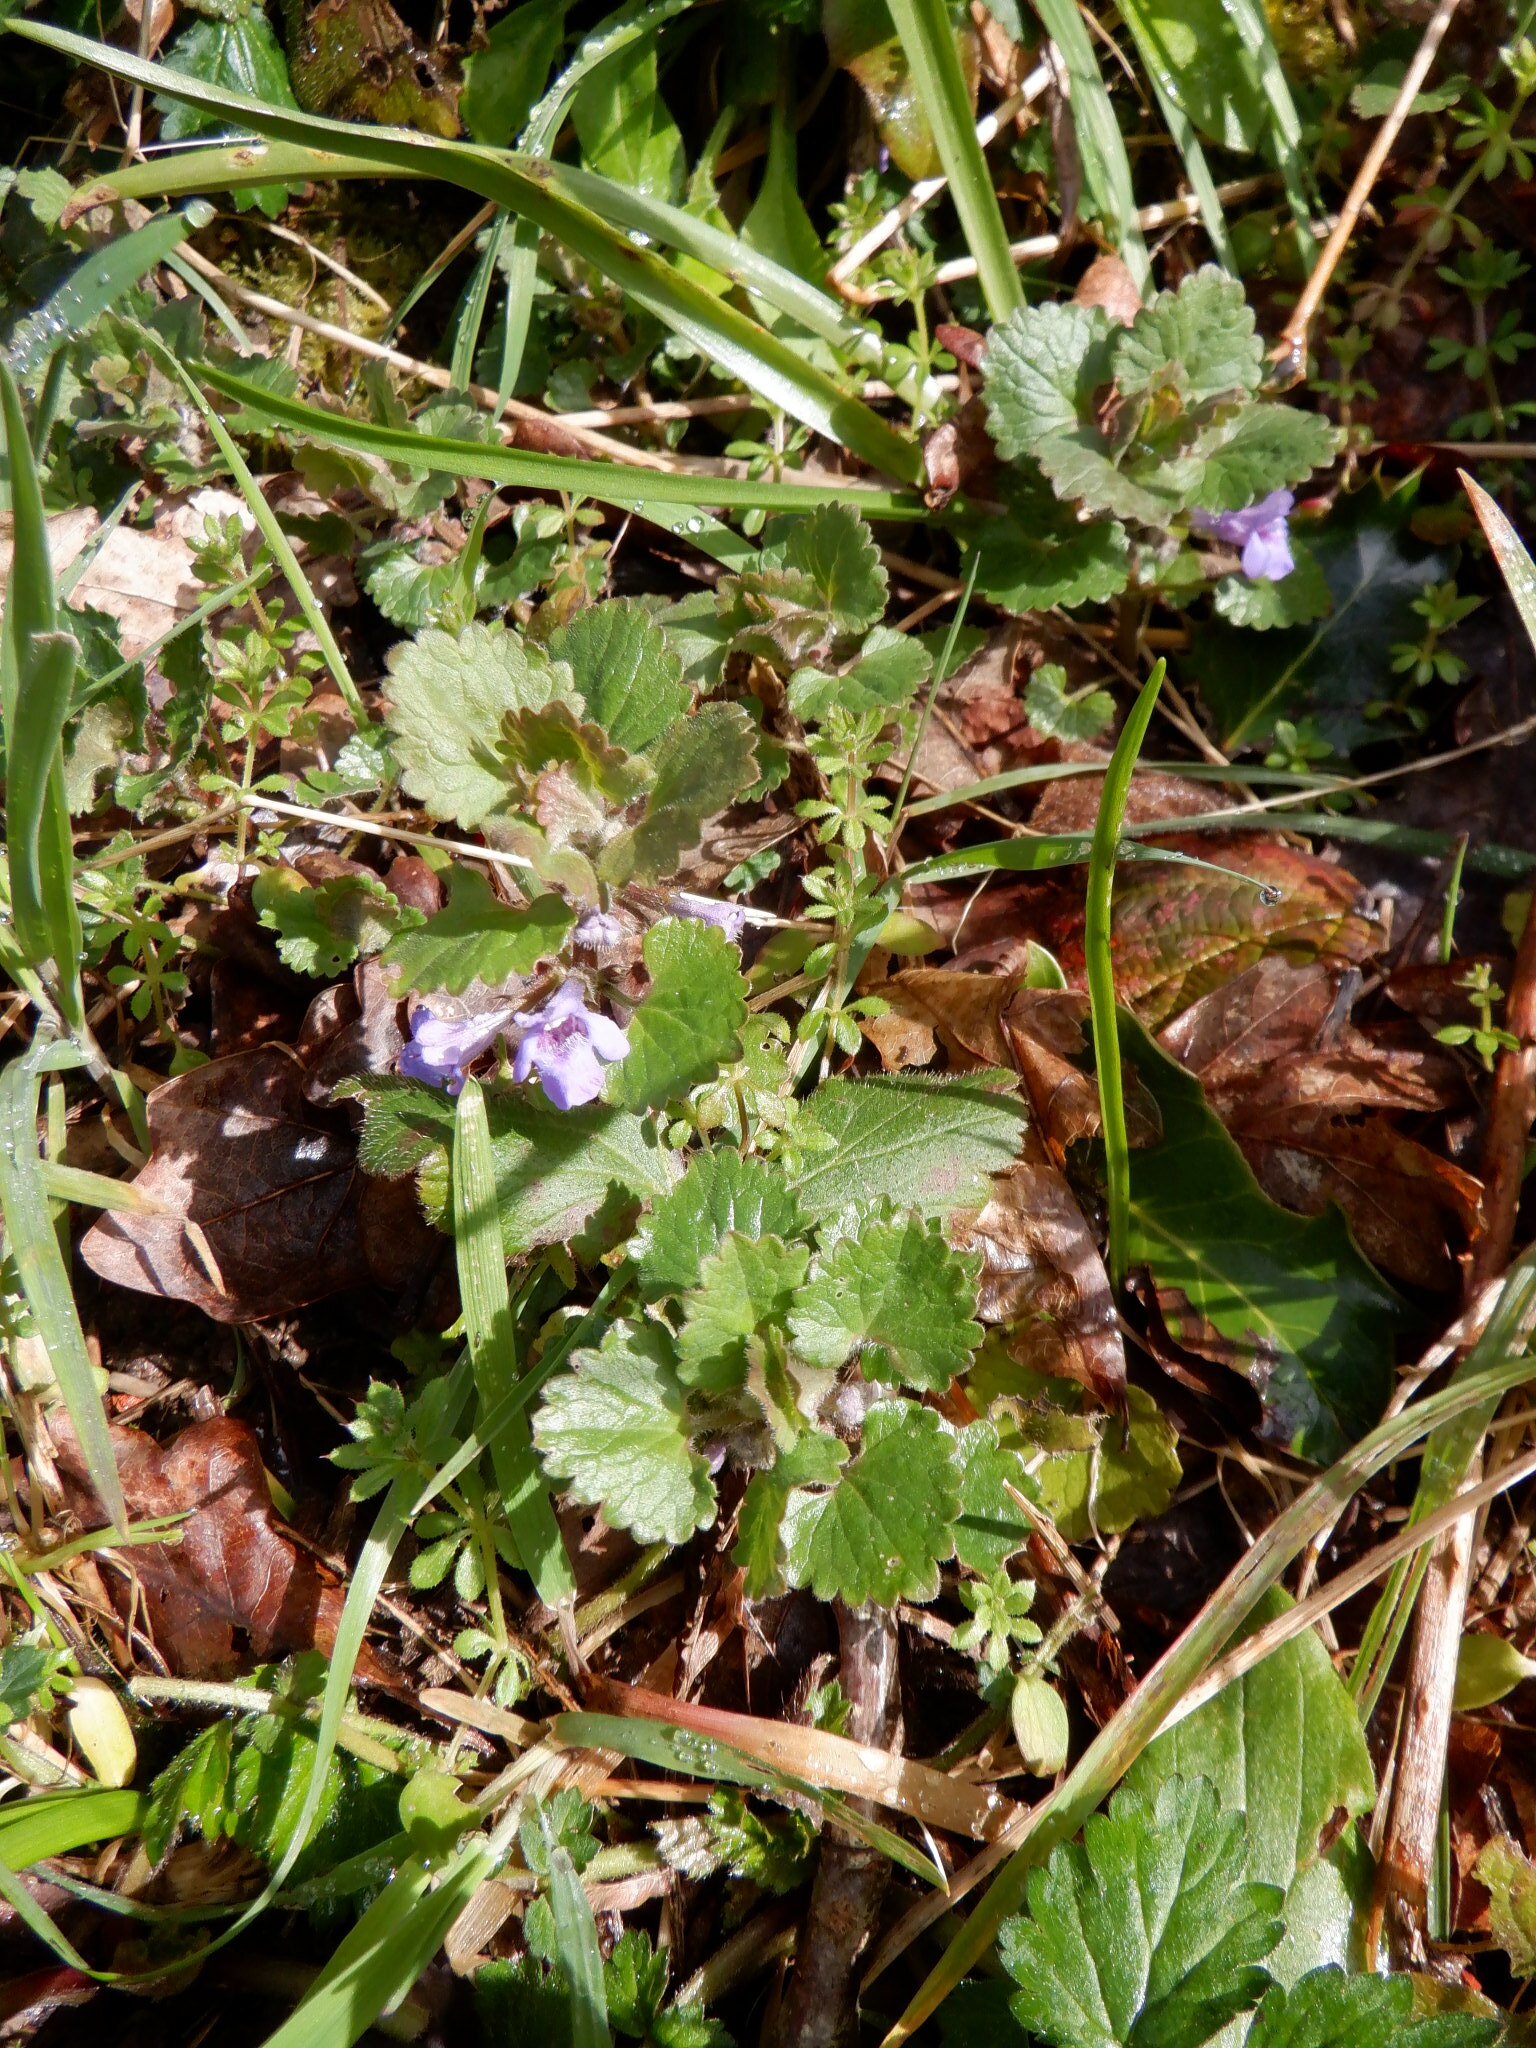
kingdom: Plantae
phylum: Tracheophyta
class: Magnoliopsida
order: Lamiales
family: Lamiaceae
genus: Glechoma
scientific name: Glechoma hederacea
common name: Ground ivy
